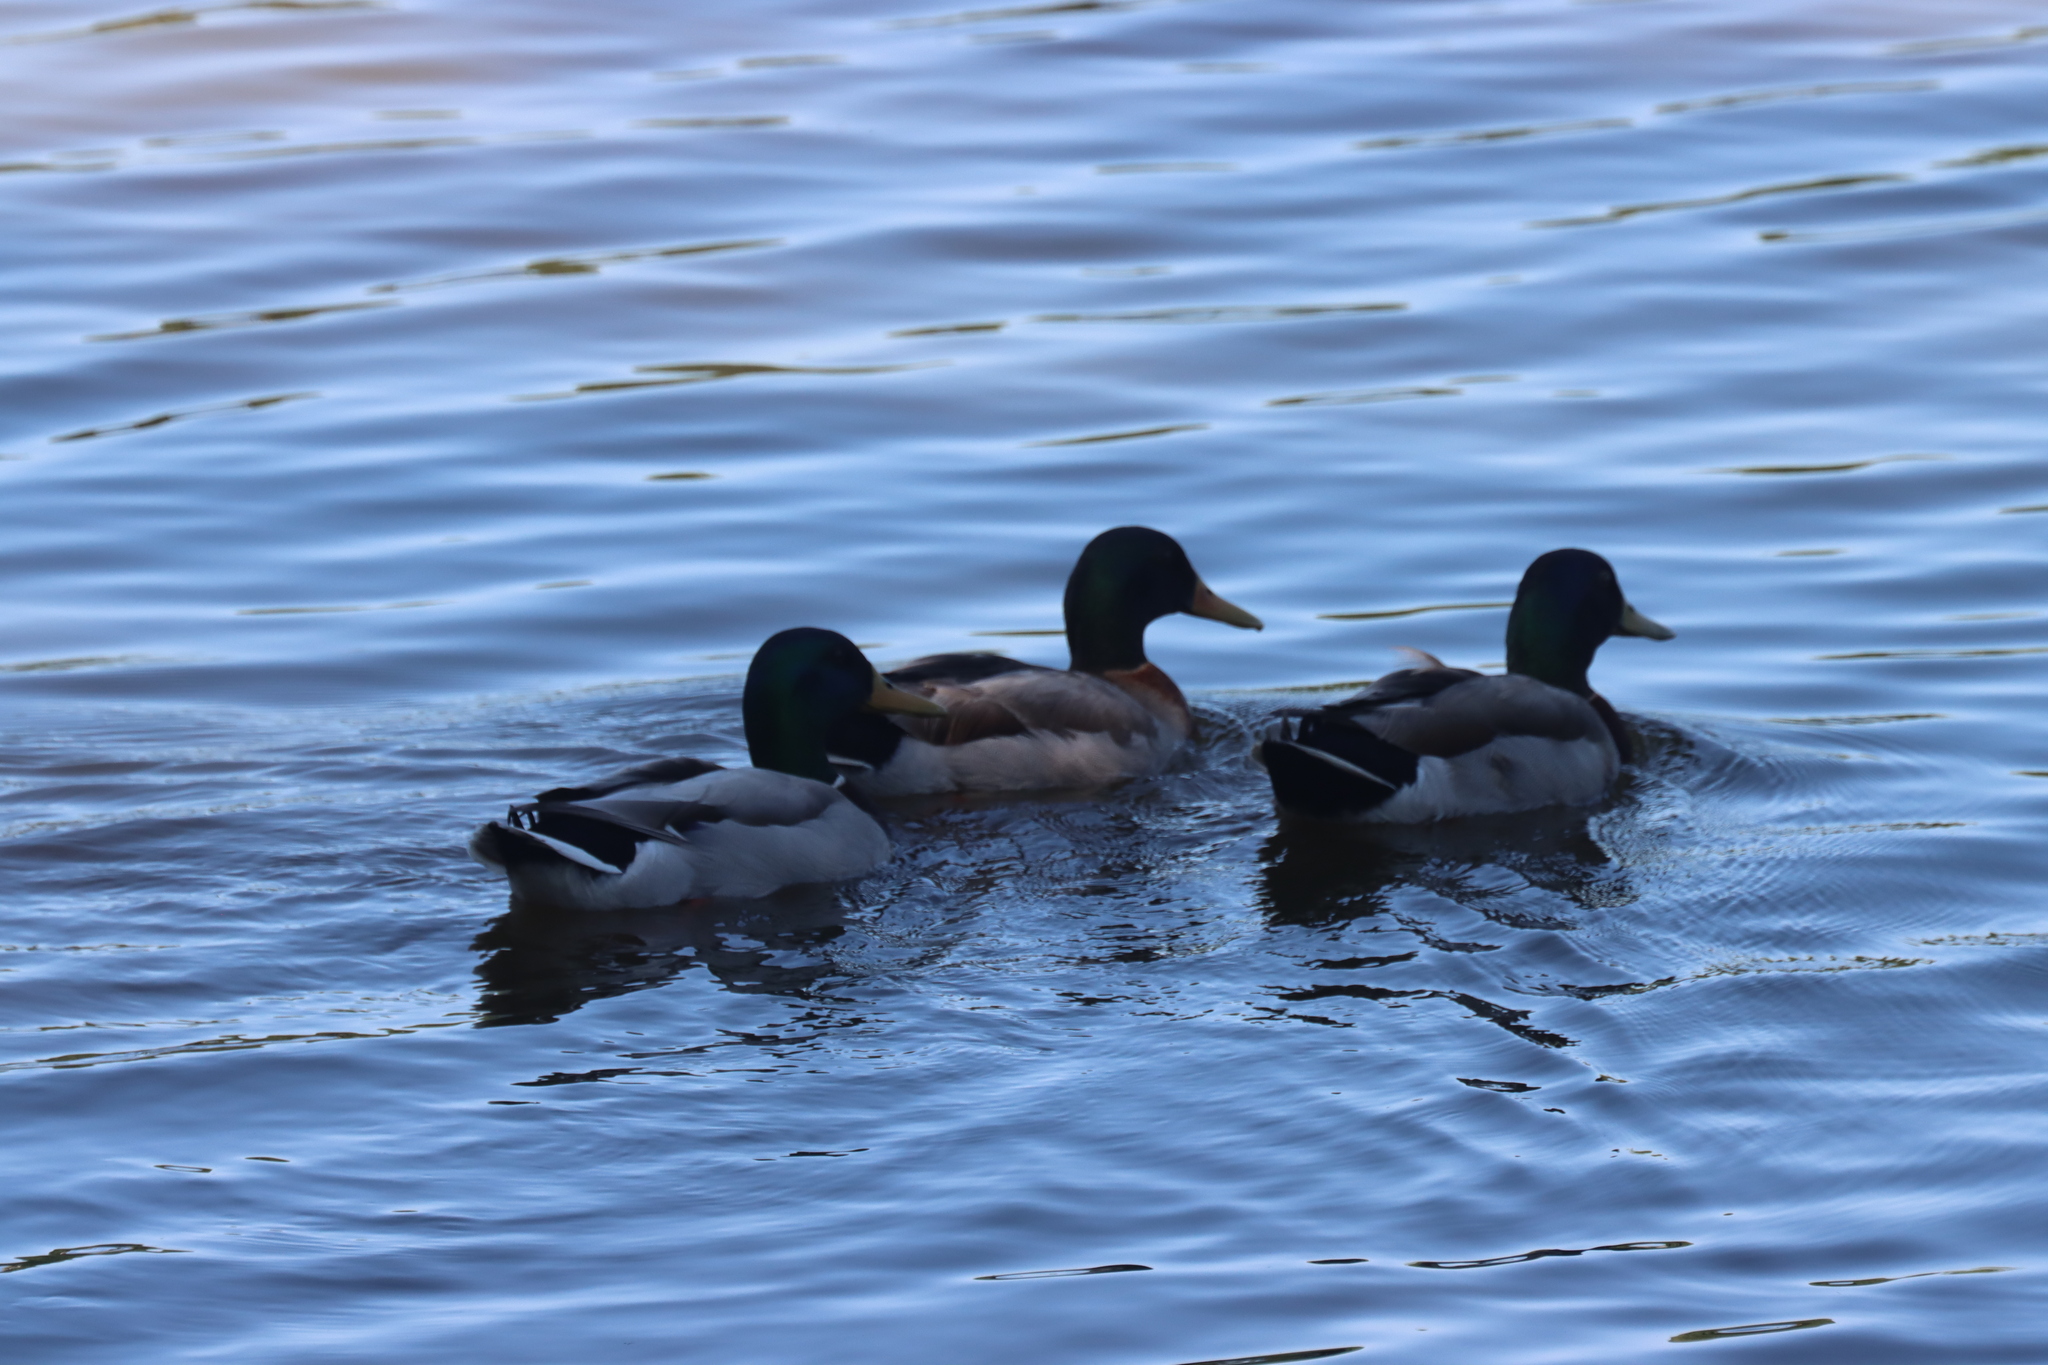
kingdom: Animalia
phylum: Chordata
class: Aves
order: Anseriformes
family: Anatidae
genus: Anas
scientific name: Anas platyrhynchos
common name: Mallard
